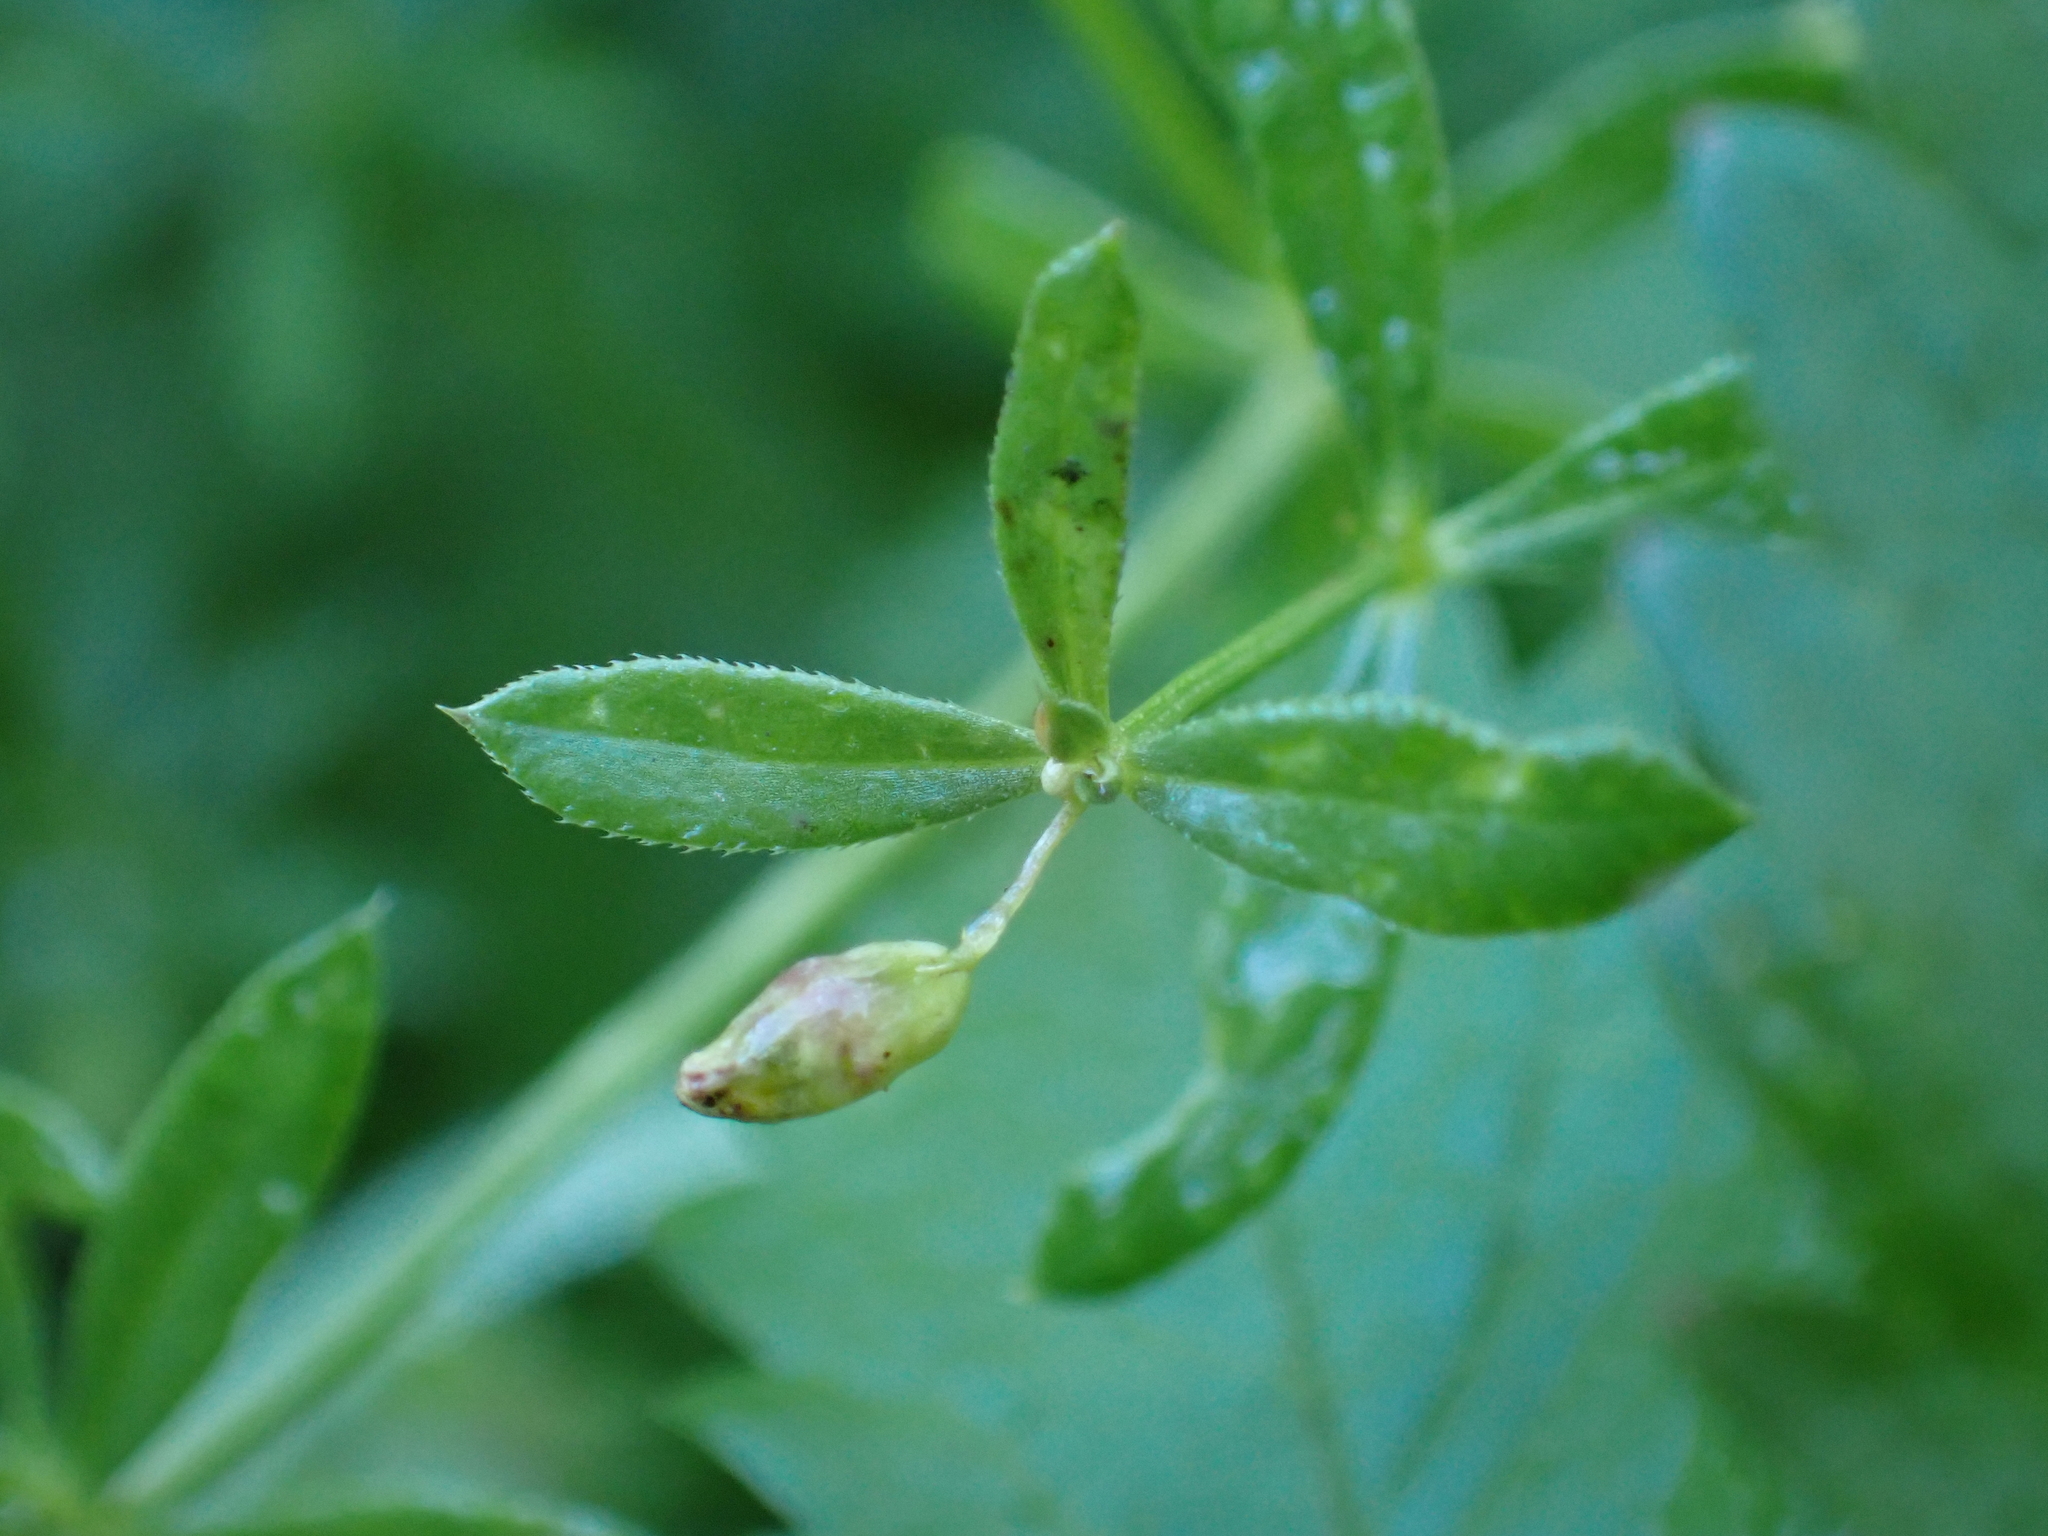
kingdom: Animalia
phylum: Arthropoda
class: Insecta
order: Diptera
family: Cecidomyiidae
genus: Schizomyia
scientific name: Schizomyia galiorum
